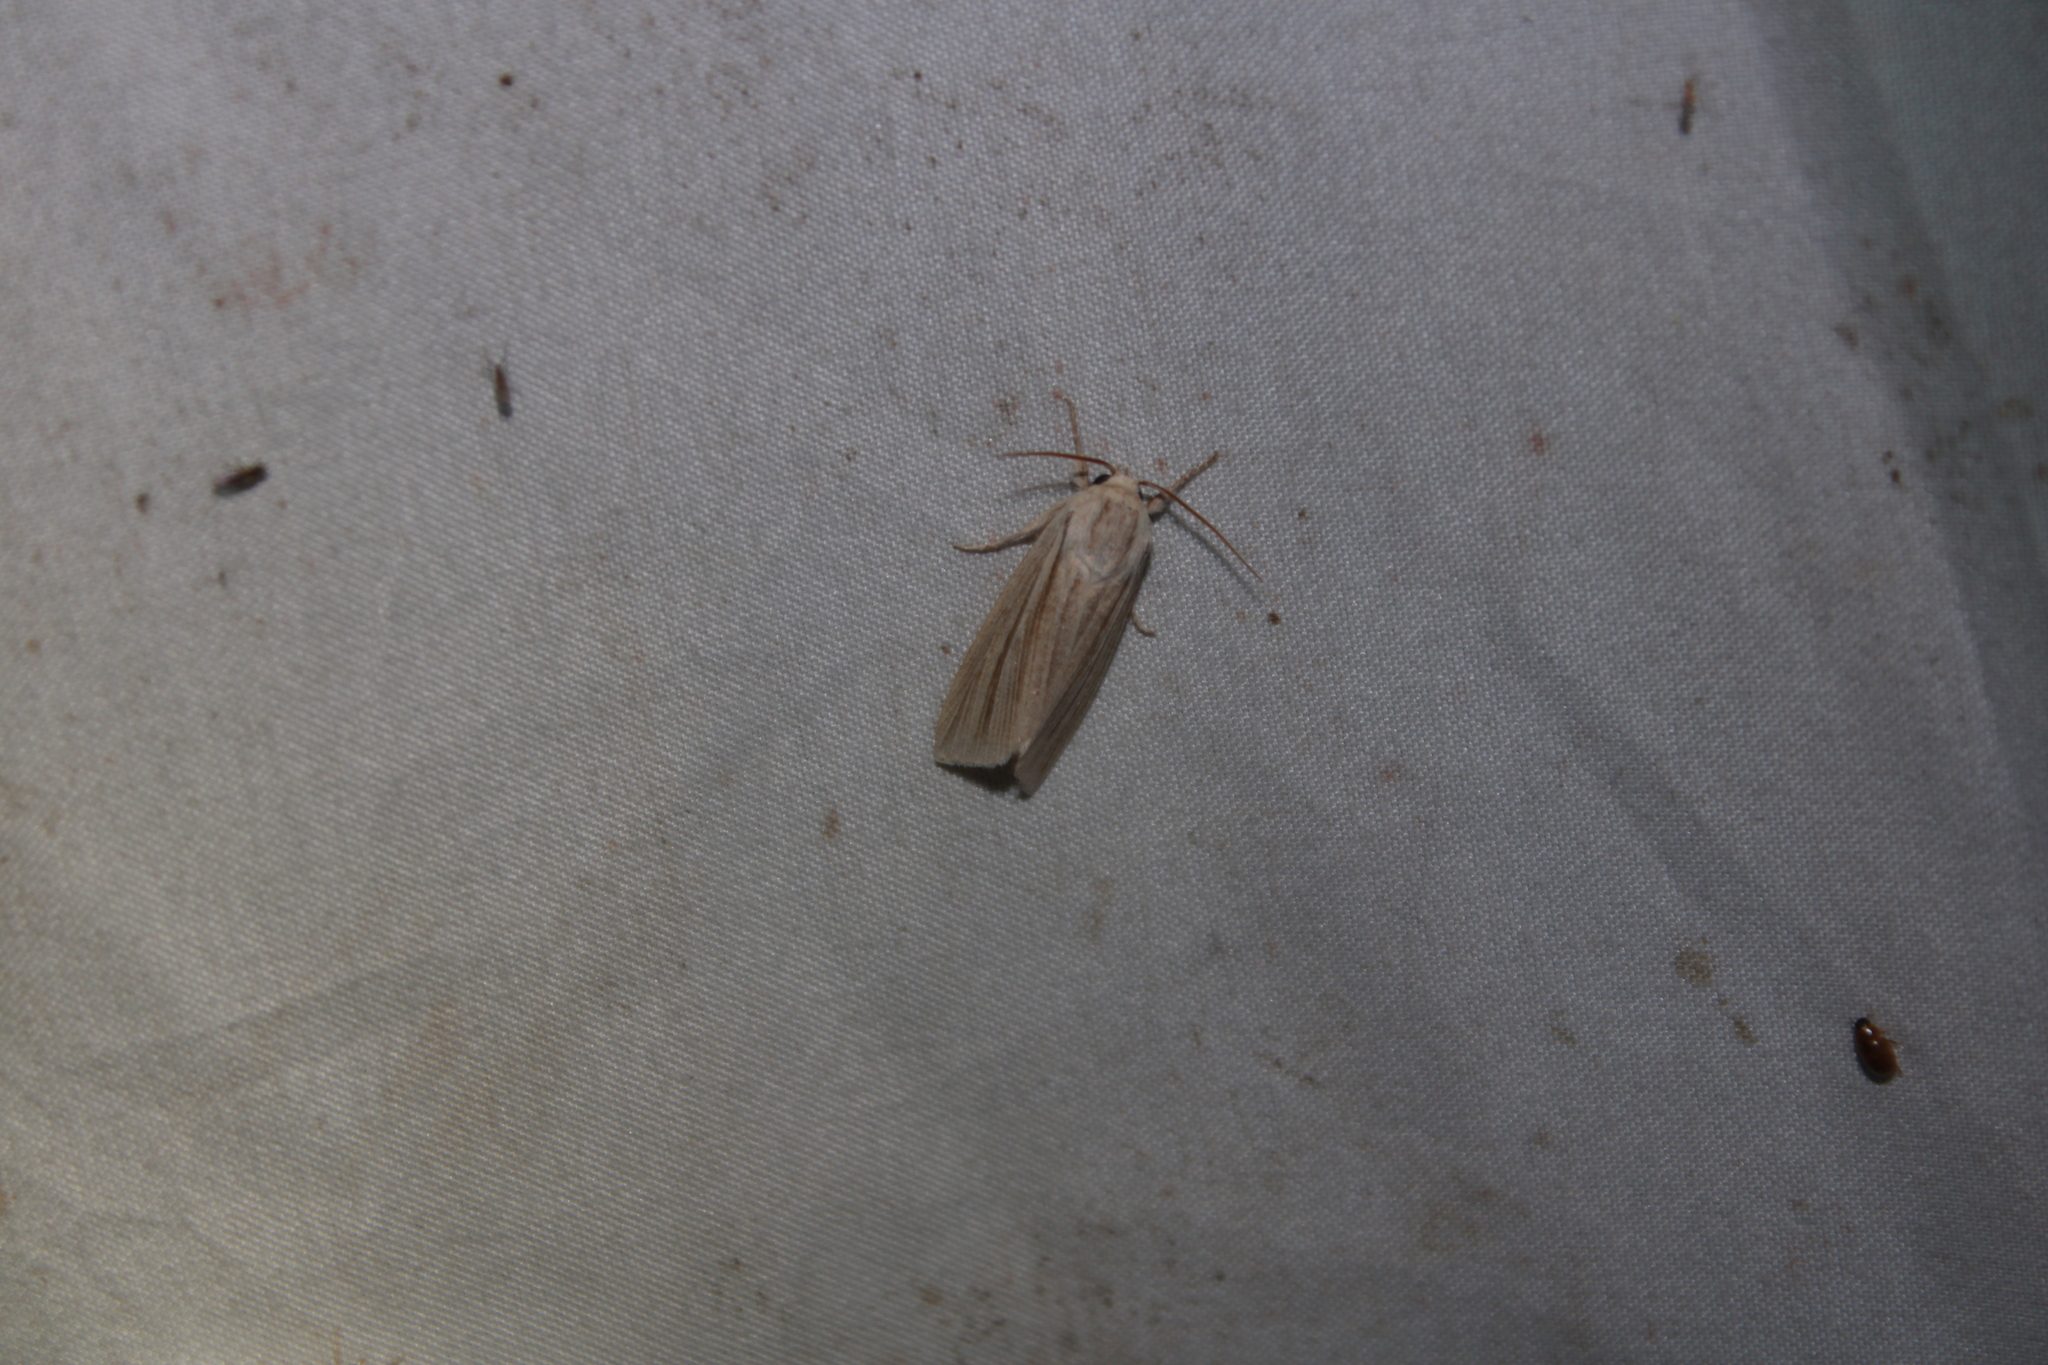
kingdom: Animalia
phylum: Arthropoda
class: Insecta
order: Lepidoptera
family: Noctuidae
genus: Acronicta
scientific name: Acronicta insularis
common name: Henry's marsh moth
